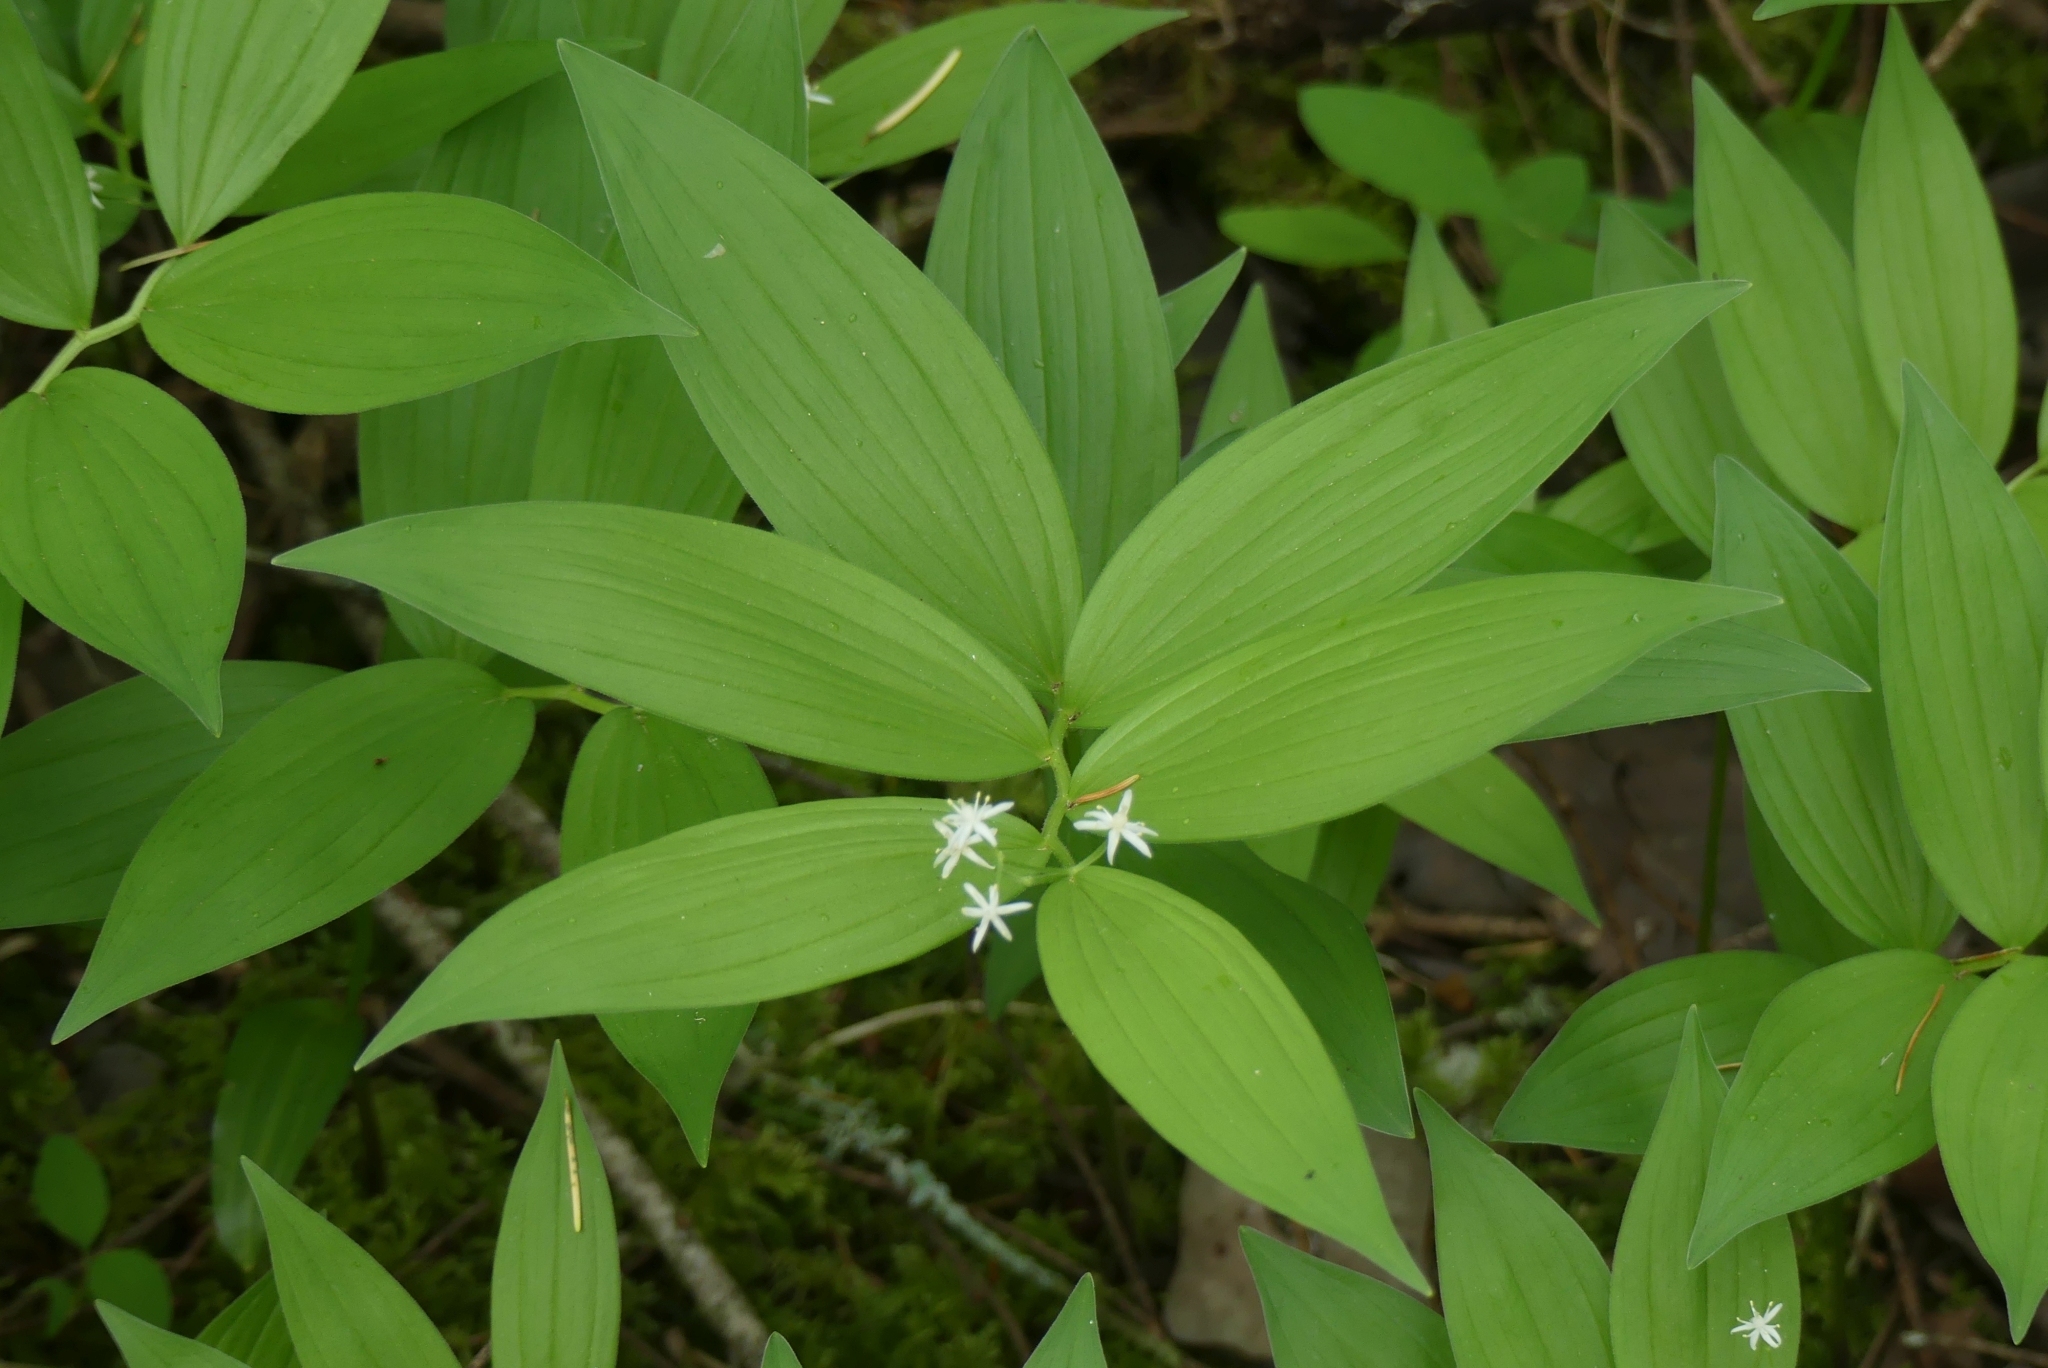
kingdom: Plantae
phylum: Tracheophyta
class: Liliopsida
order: Asparagales
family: Asparagaceae
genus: Maianthemum
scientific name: Maianthemum stellatum
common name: Little false solomon's seal
